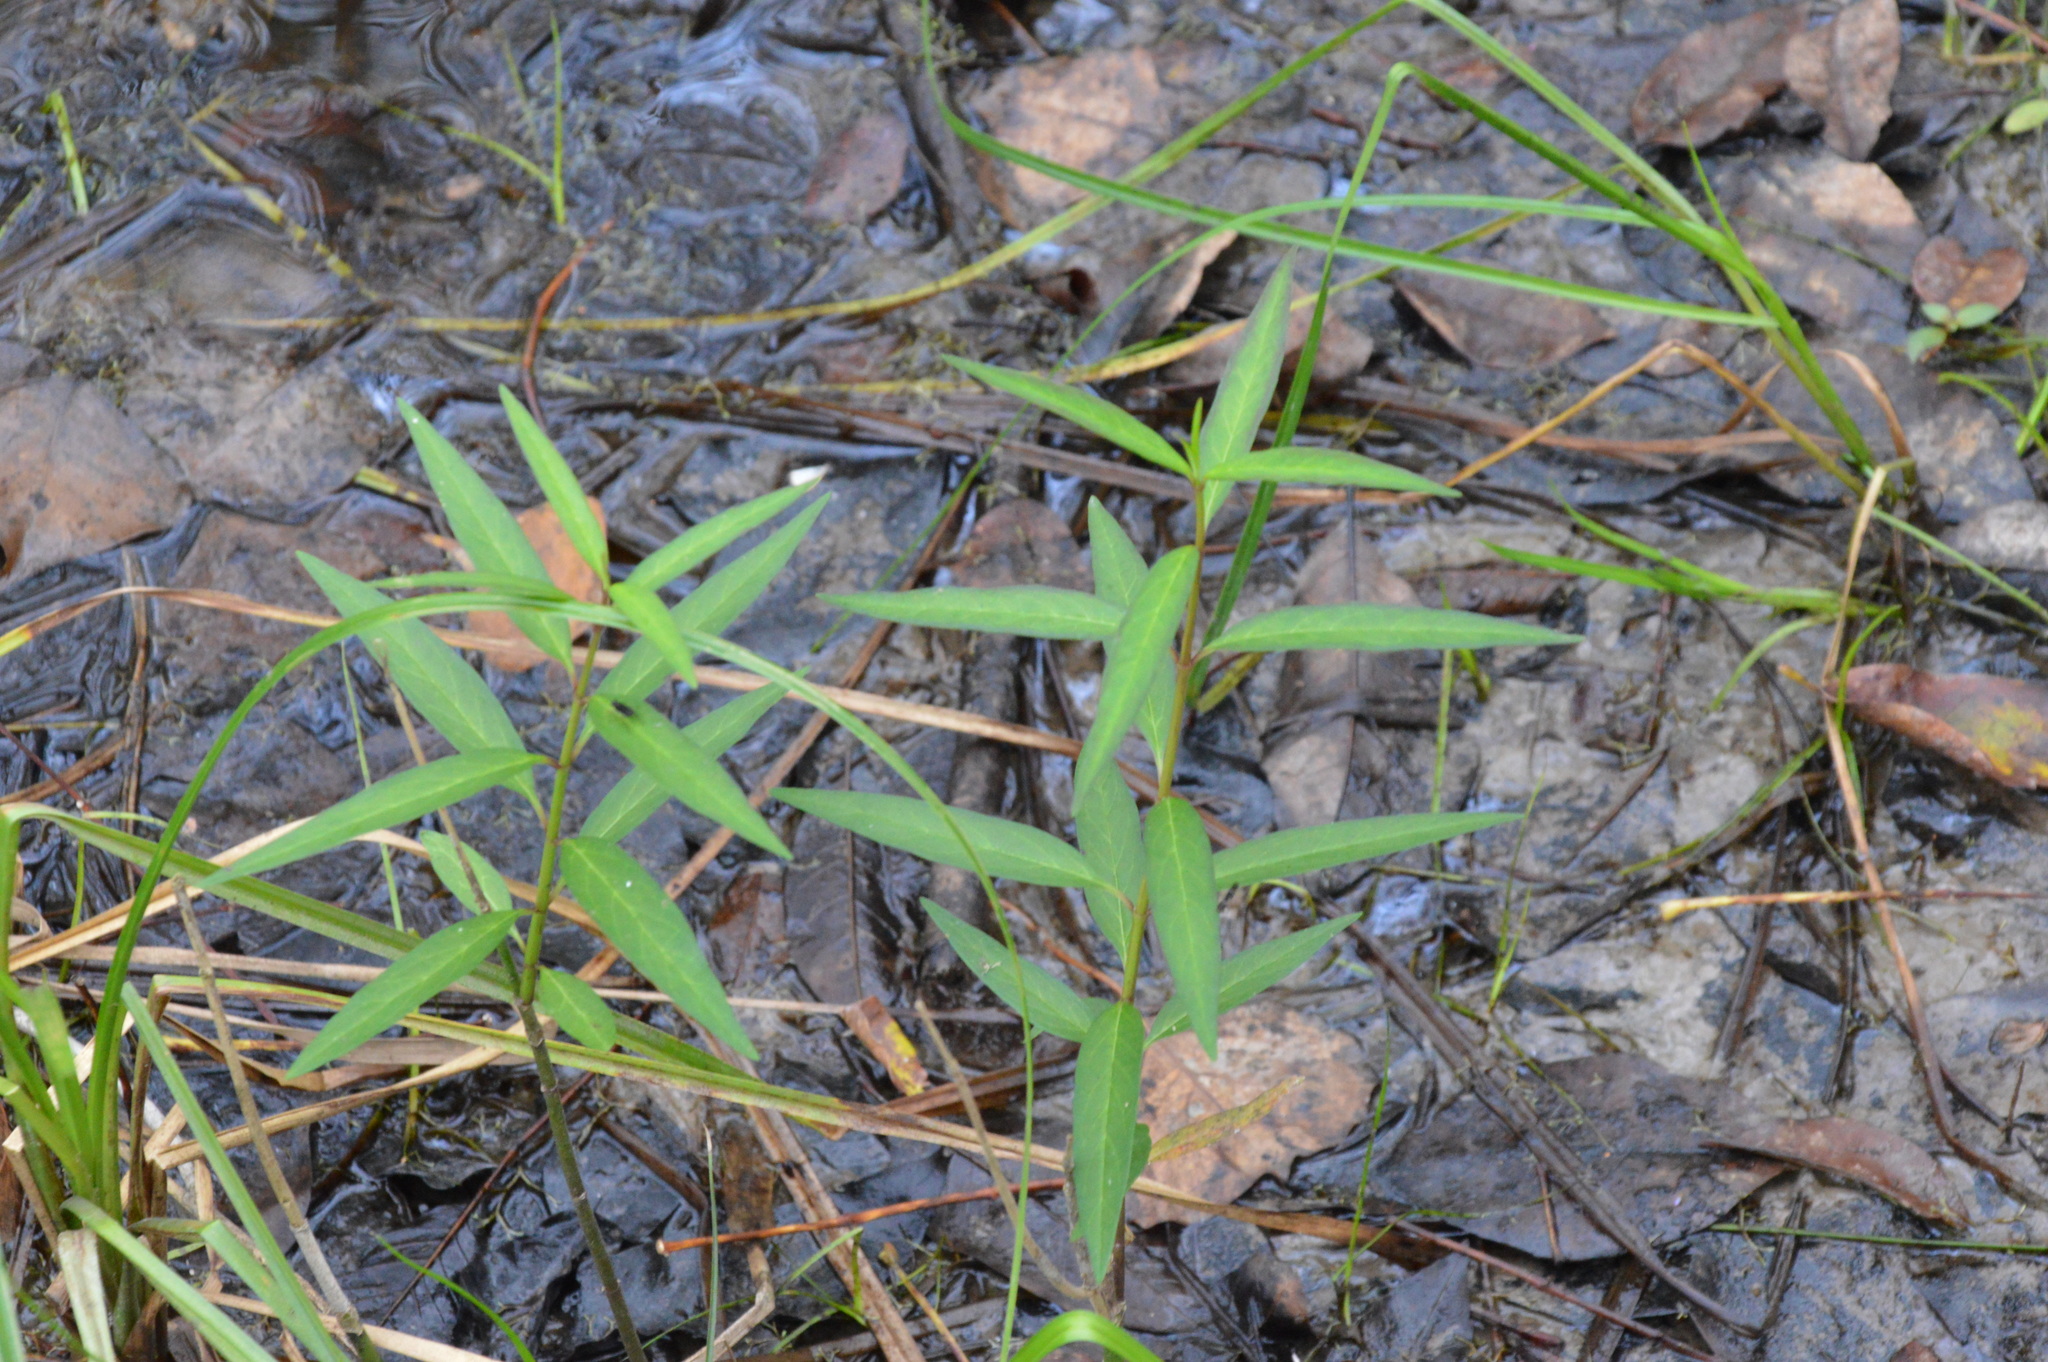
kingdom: Plantae
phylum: Tracheophyta
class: Magnoliopsida
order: Gentianales
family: Apocynaceae
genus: Asclepias
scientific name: Asclepias perennis
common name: Smooth-seed milkweed
